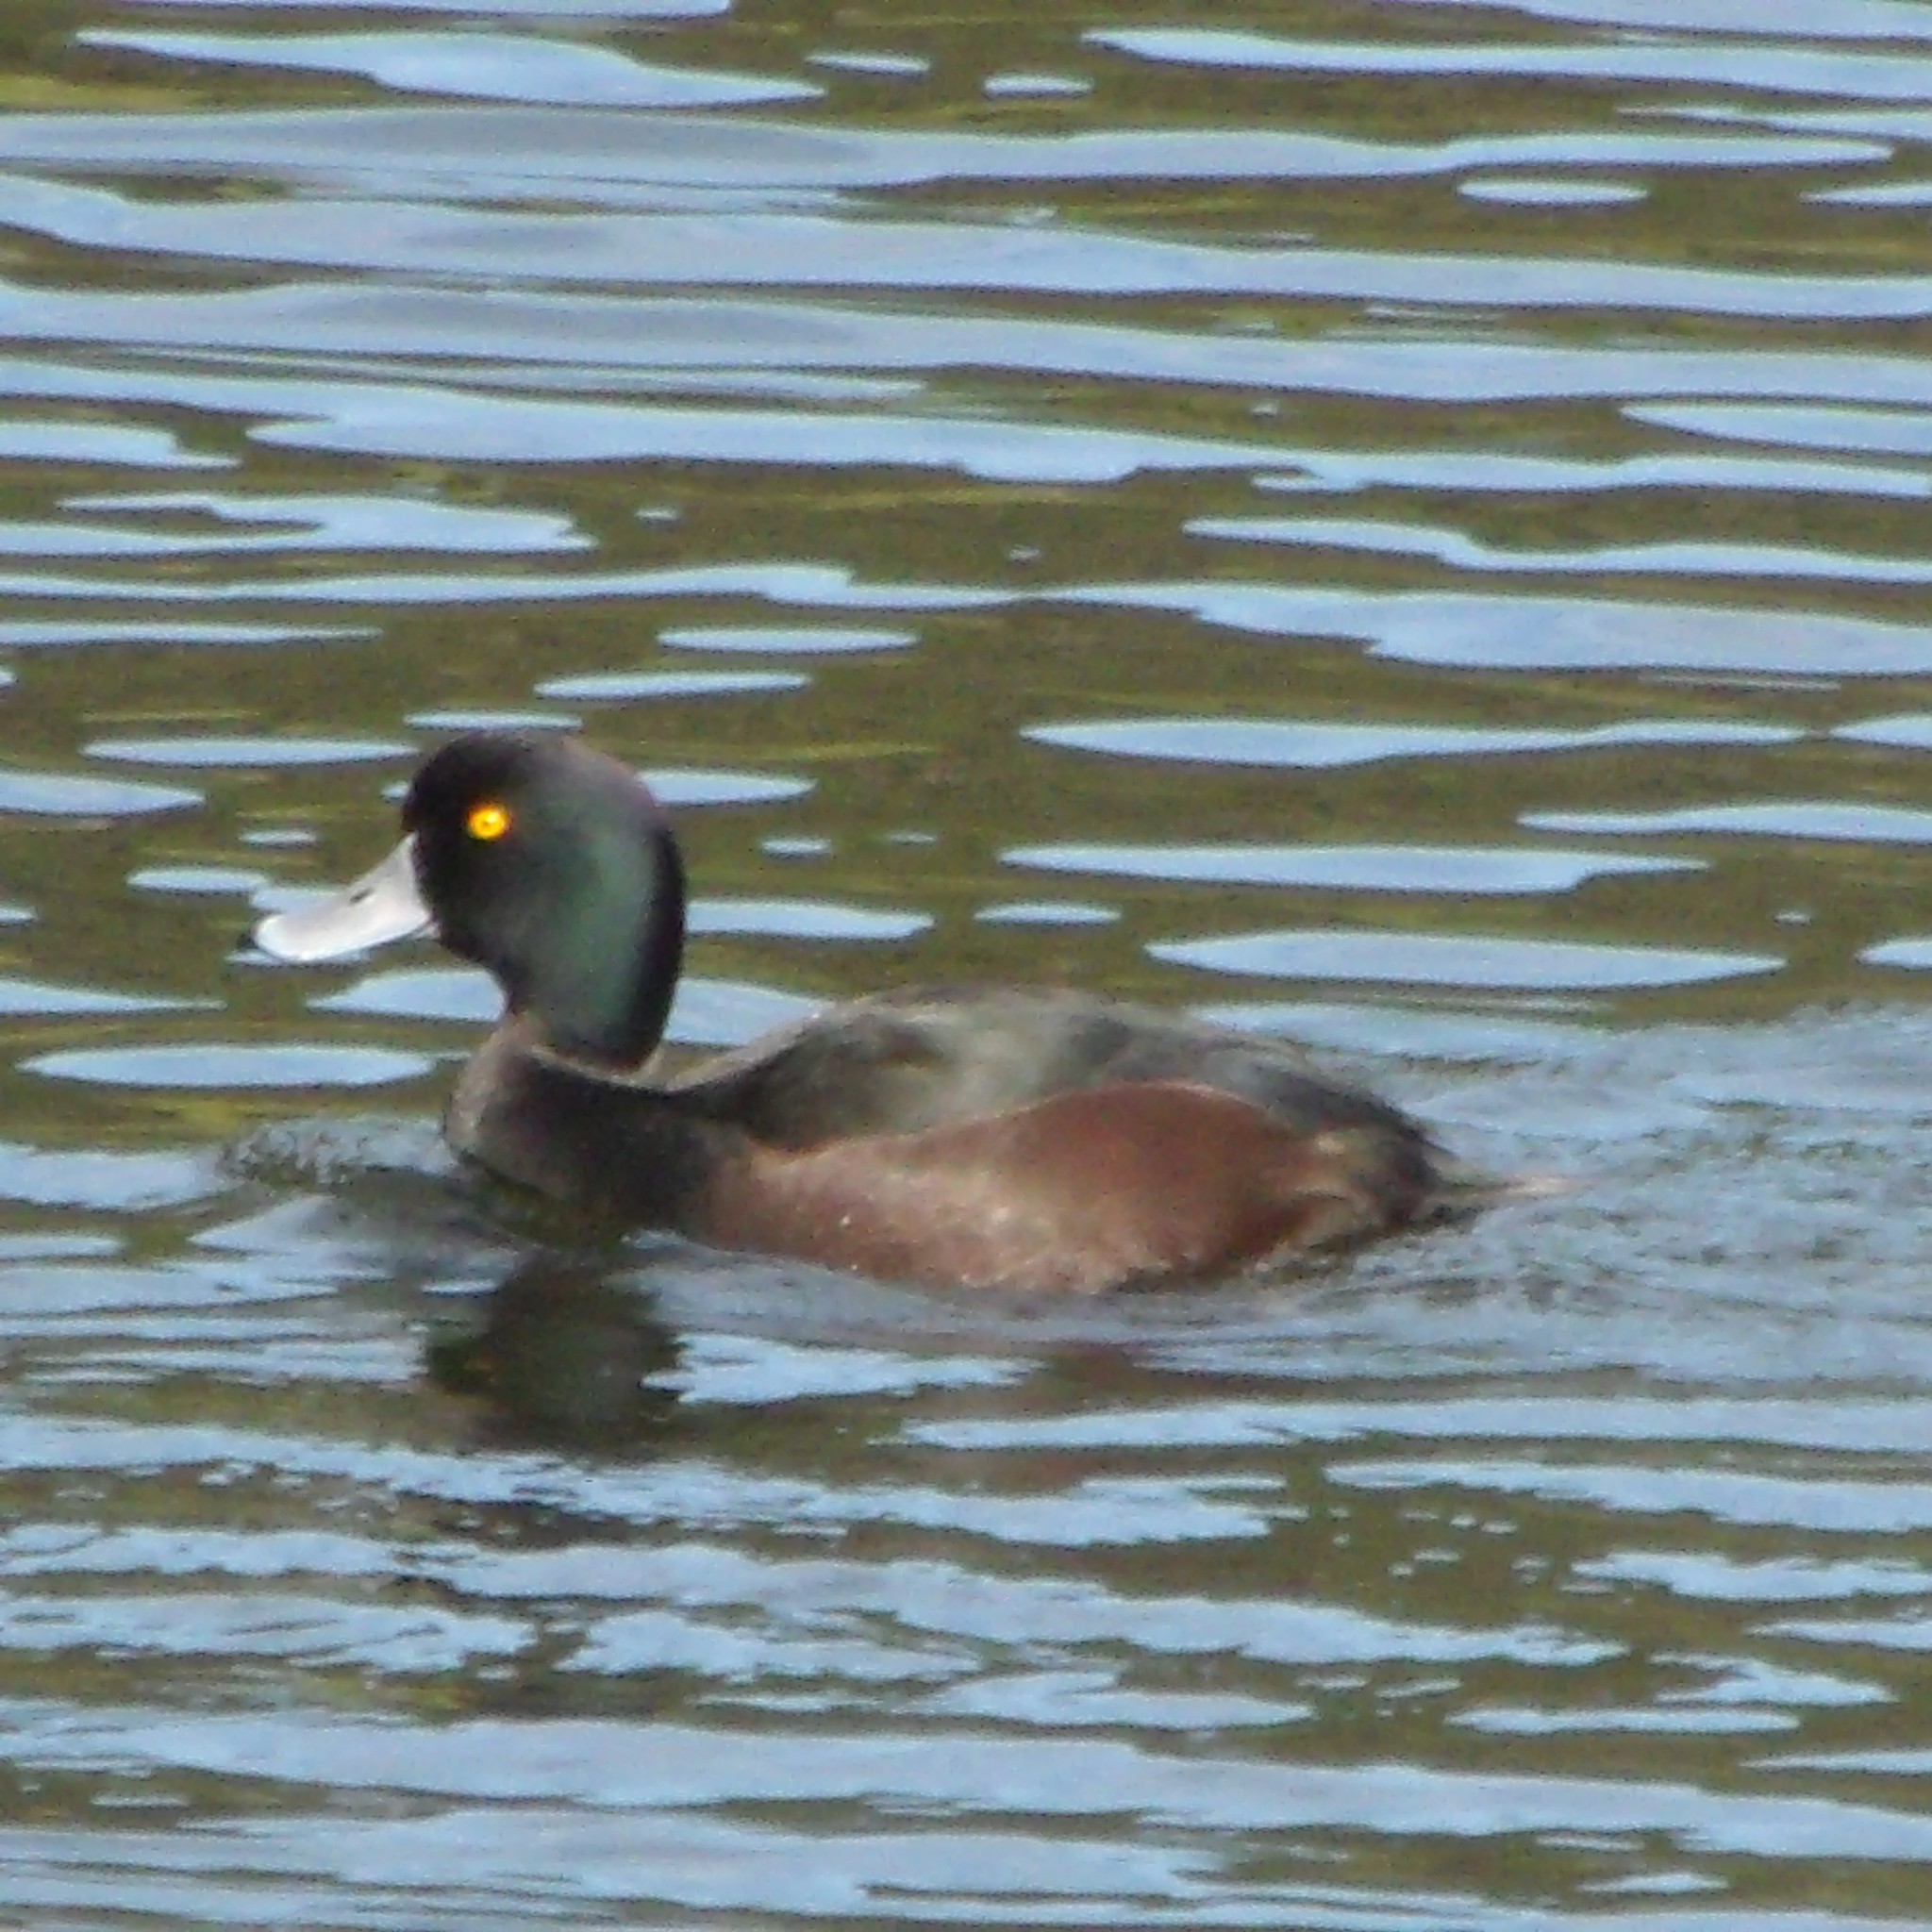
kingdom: Animalia
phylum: Chordata
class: Aves
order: Anseriformes
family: Anatidae
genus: Aythya
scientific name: Aythya novaeseelandiae
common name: New zealand scaup
